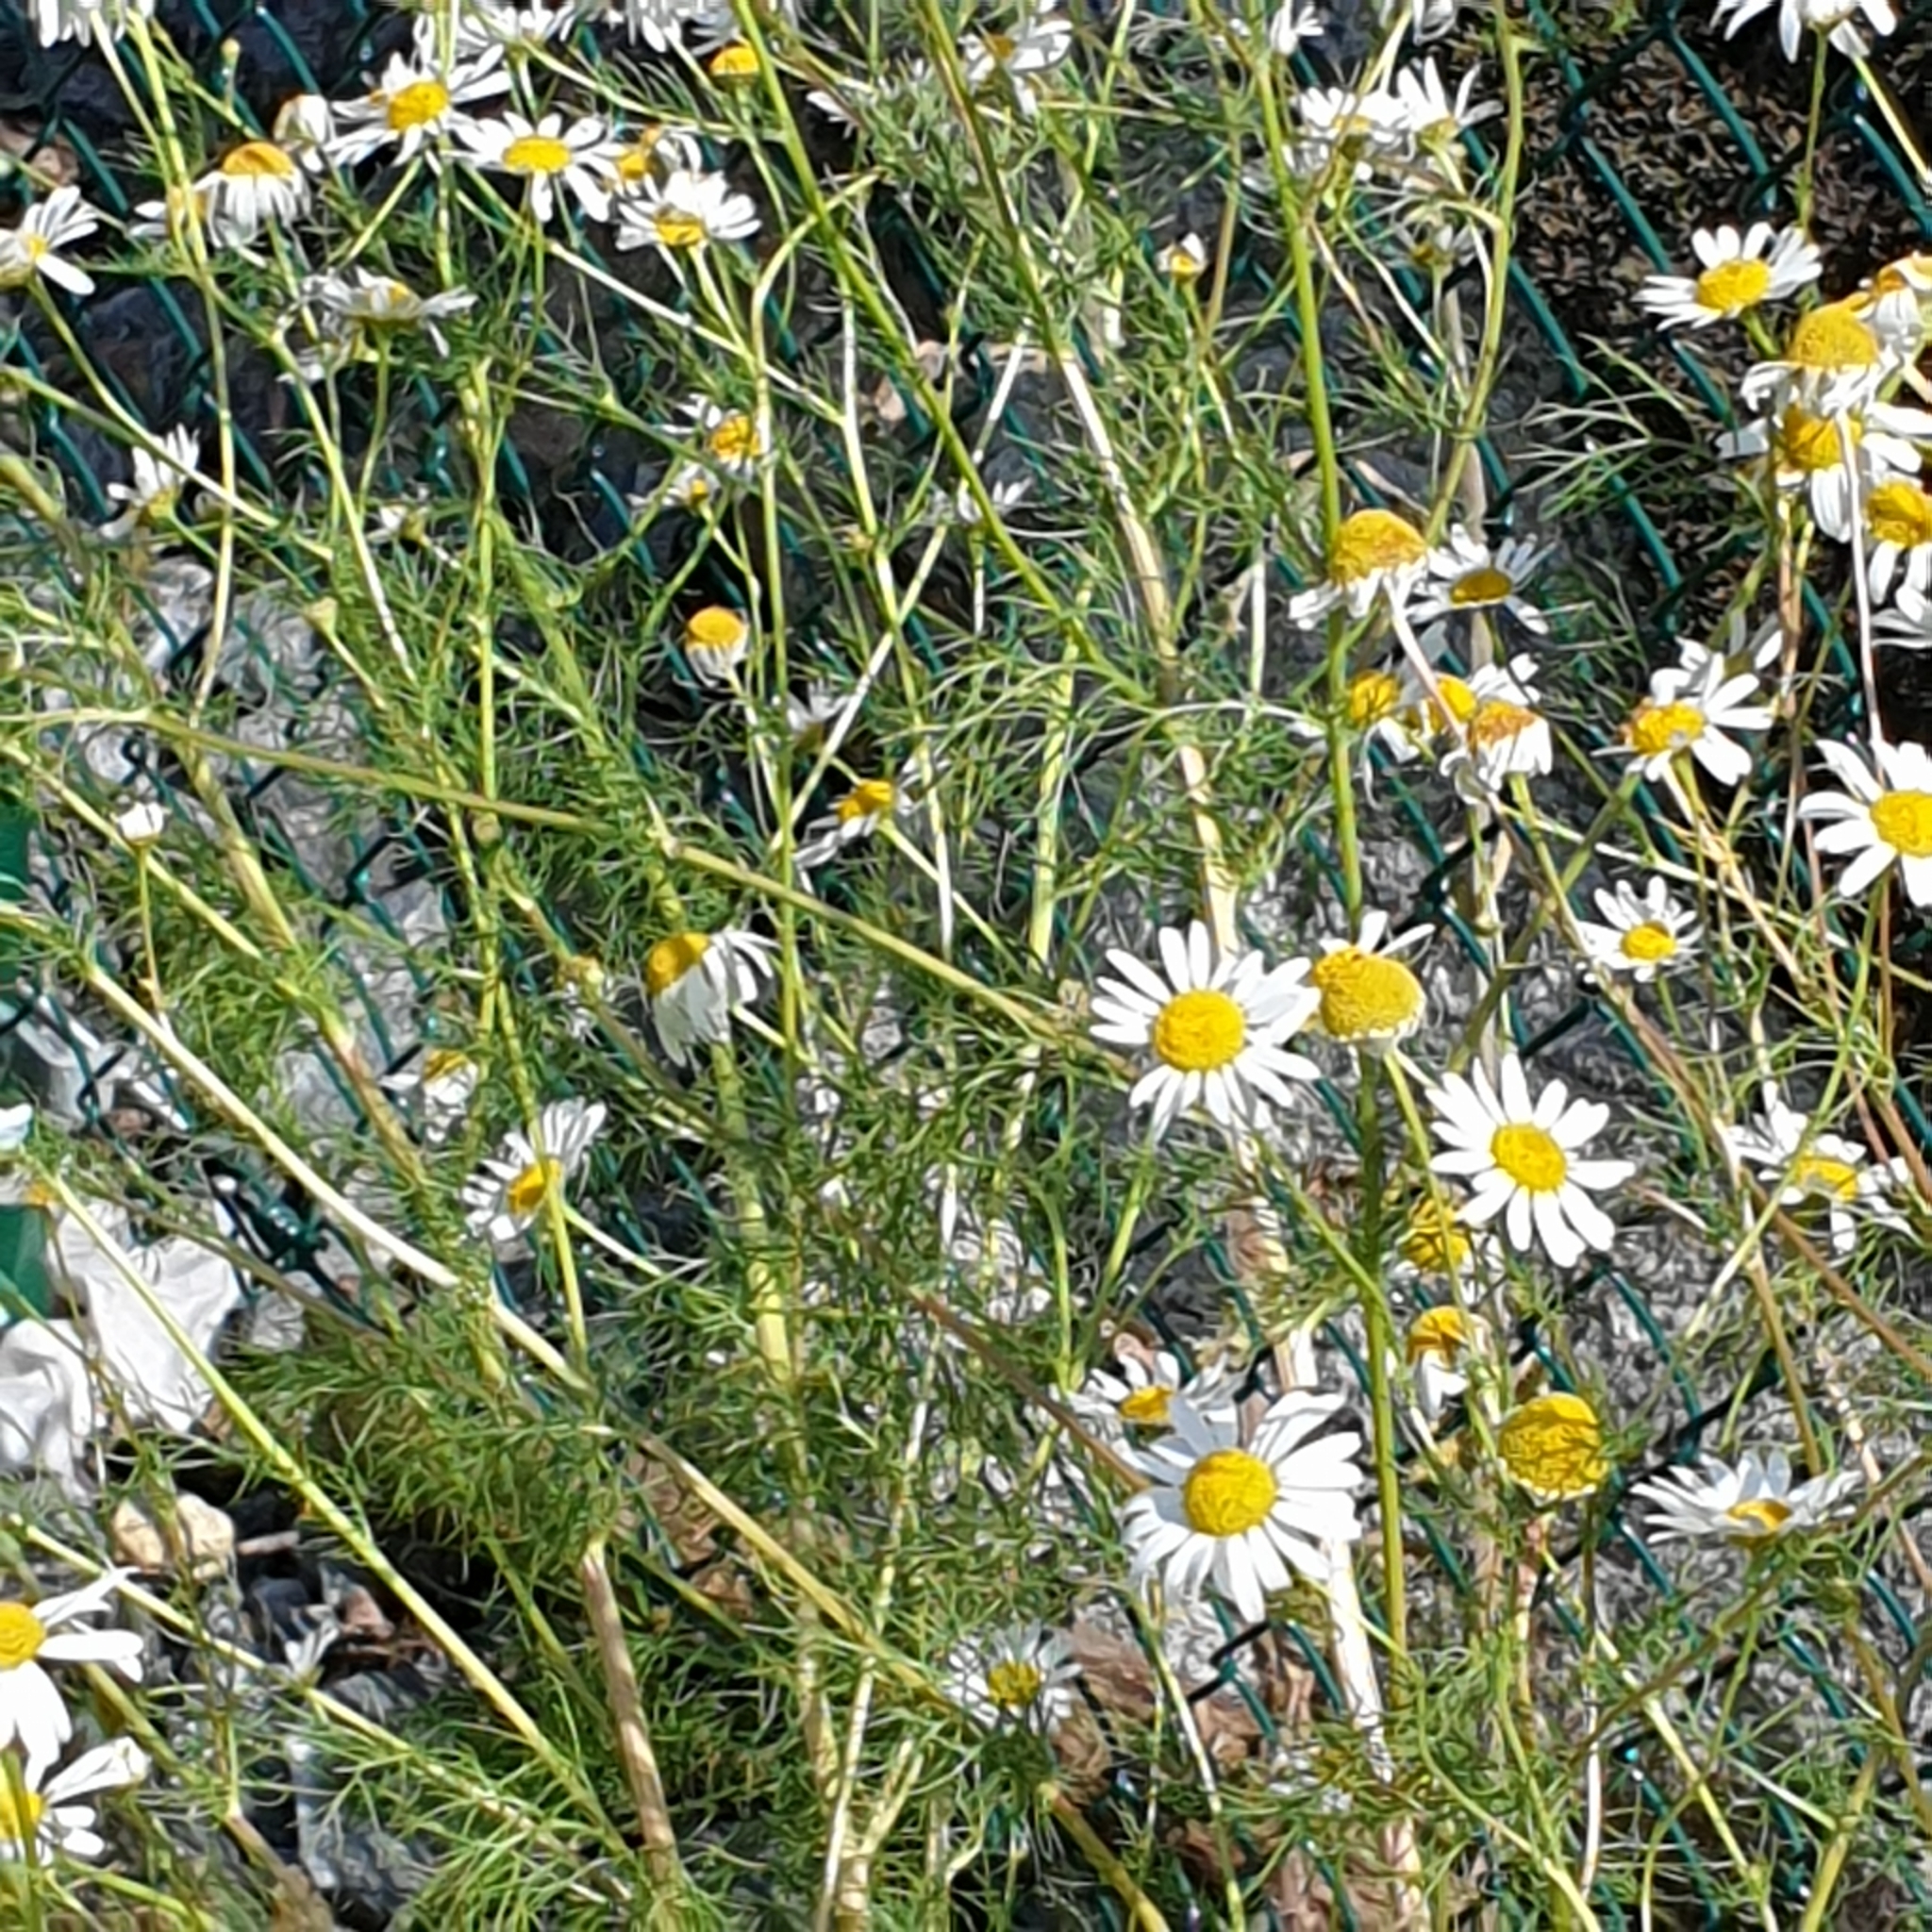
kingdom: Plantae
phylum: Tracheophyta
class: Magnoliopsida
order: Asterales
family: Asteraceae
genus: Tripleurospermum
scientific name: Tripleurospermum inodorum
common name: Scentless mayweed
